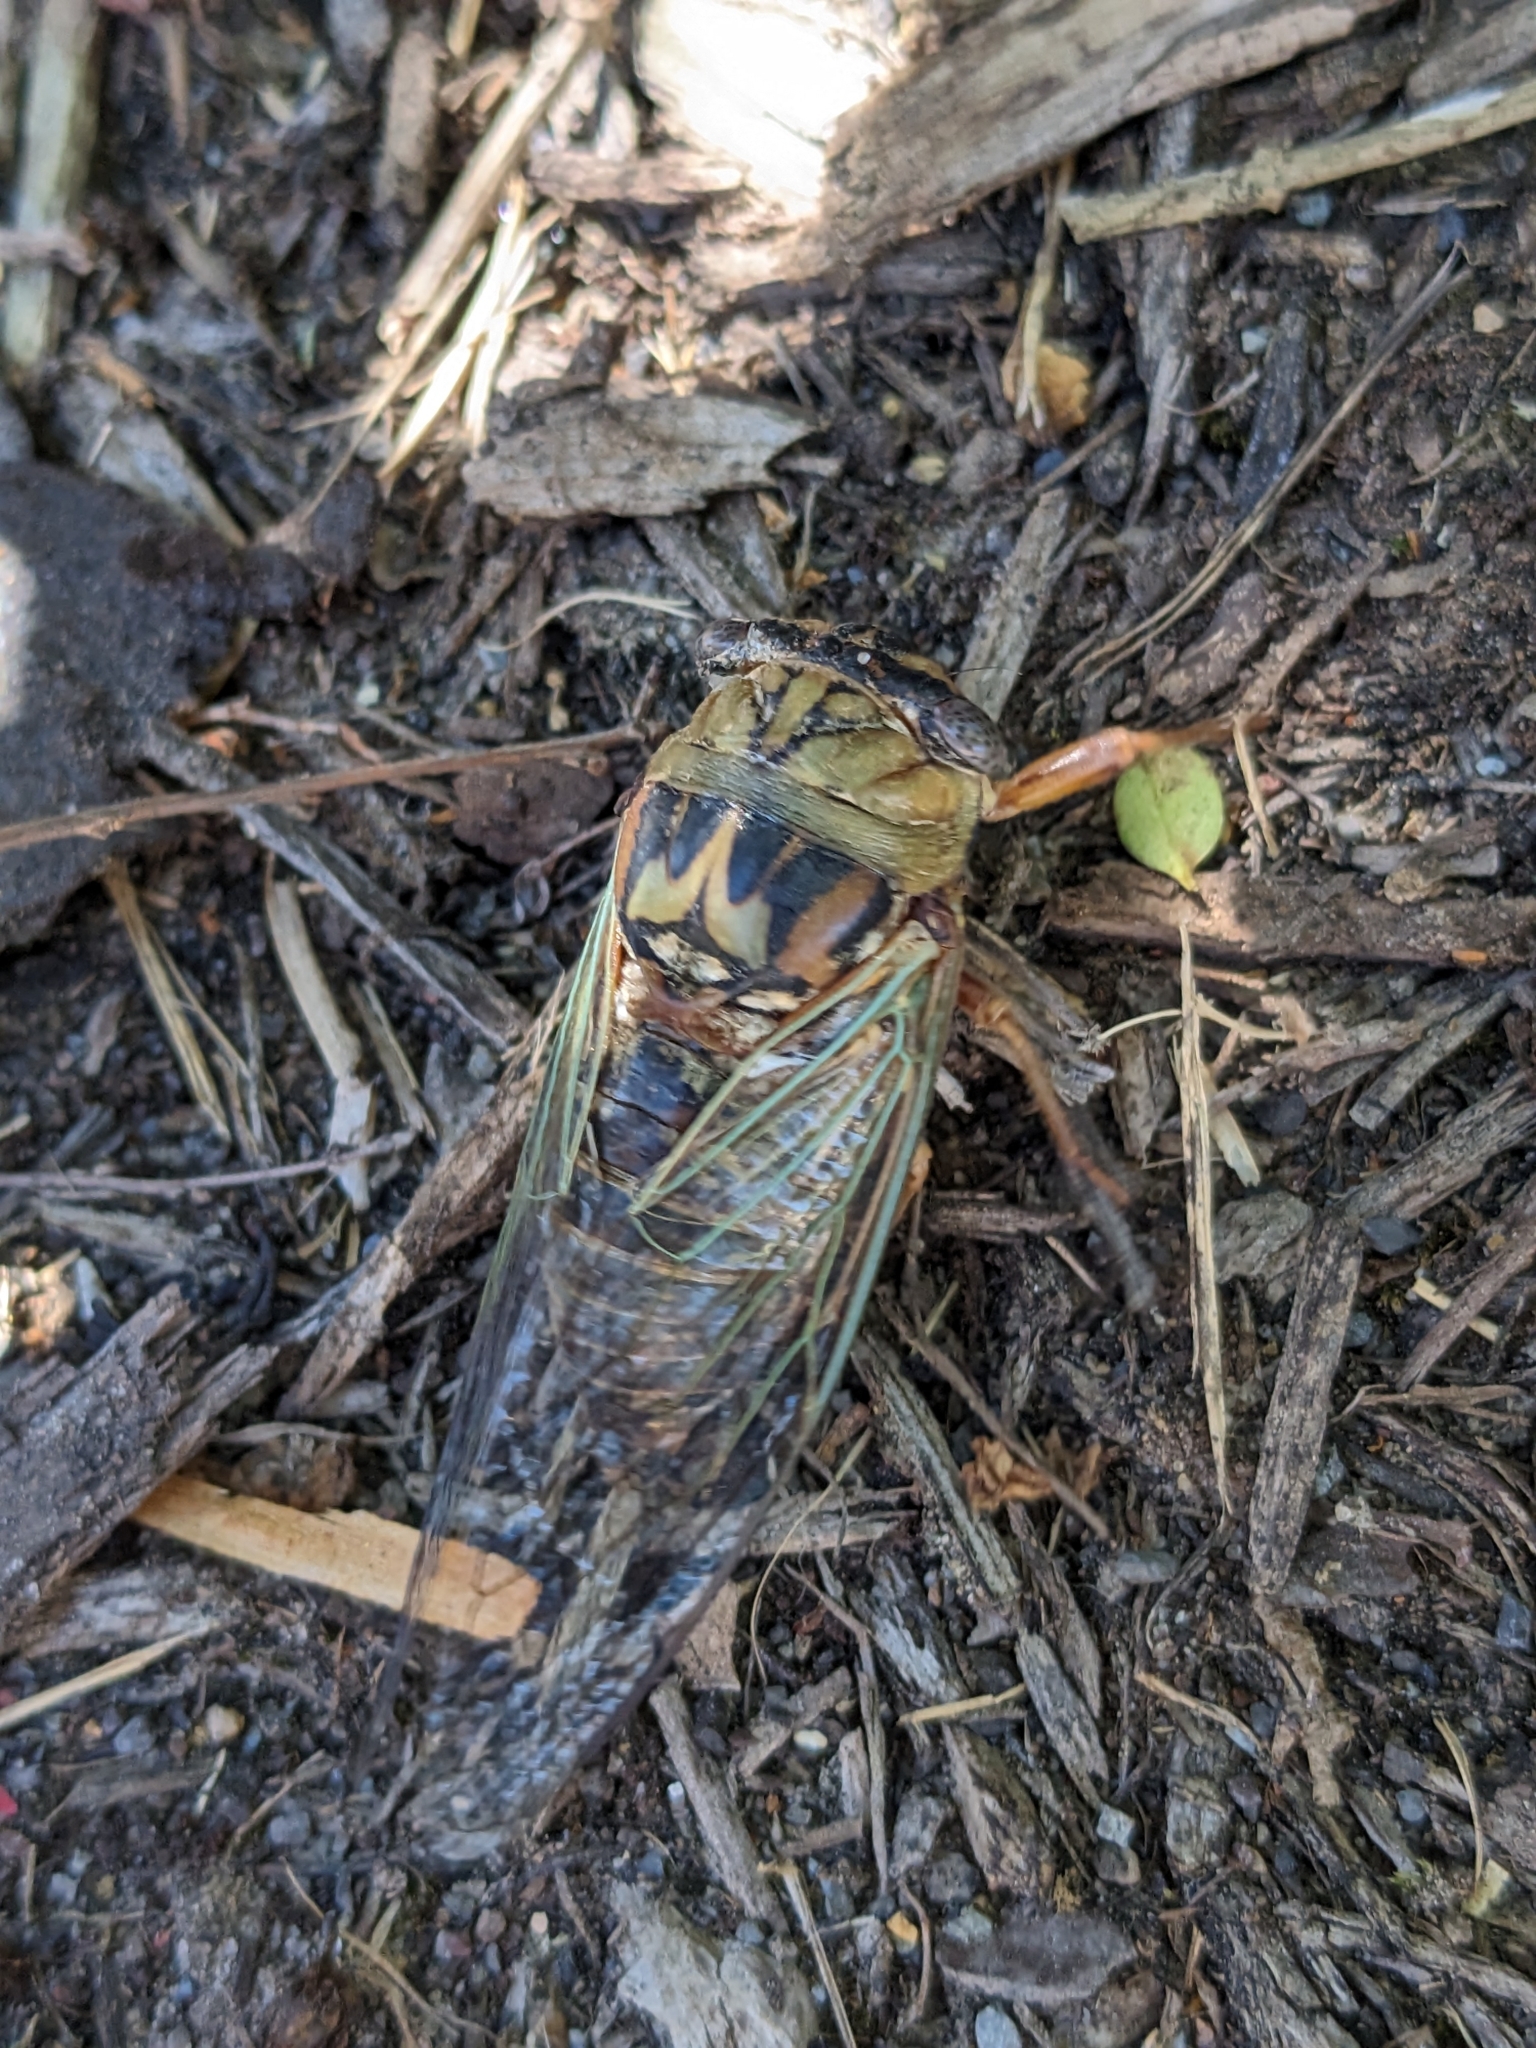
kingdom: Animalia
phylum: Arthropoda
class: Insecta
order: Hemiptera
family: Cicadidae
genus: Megatibicen
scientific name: Megatibicen resh
